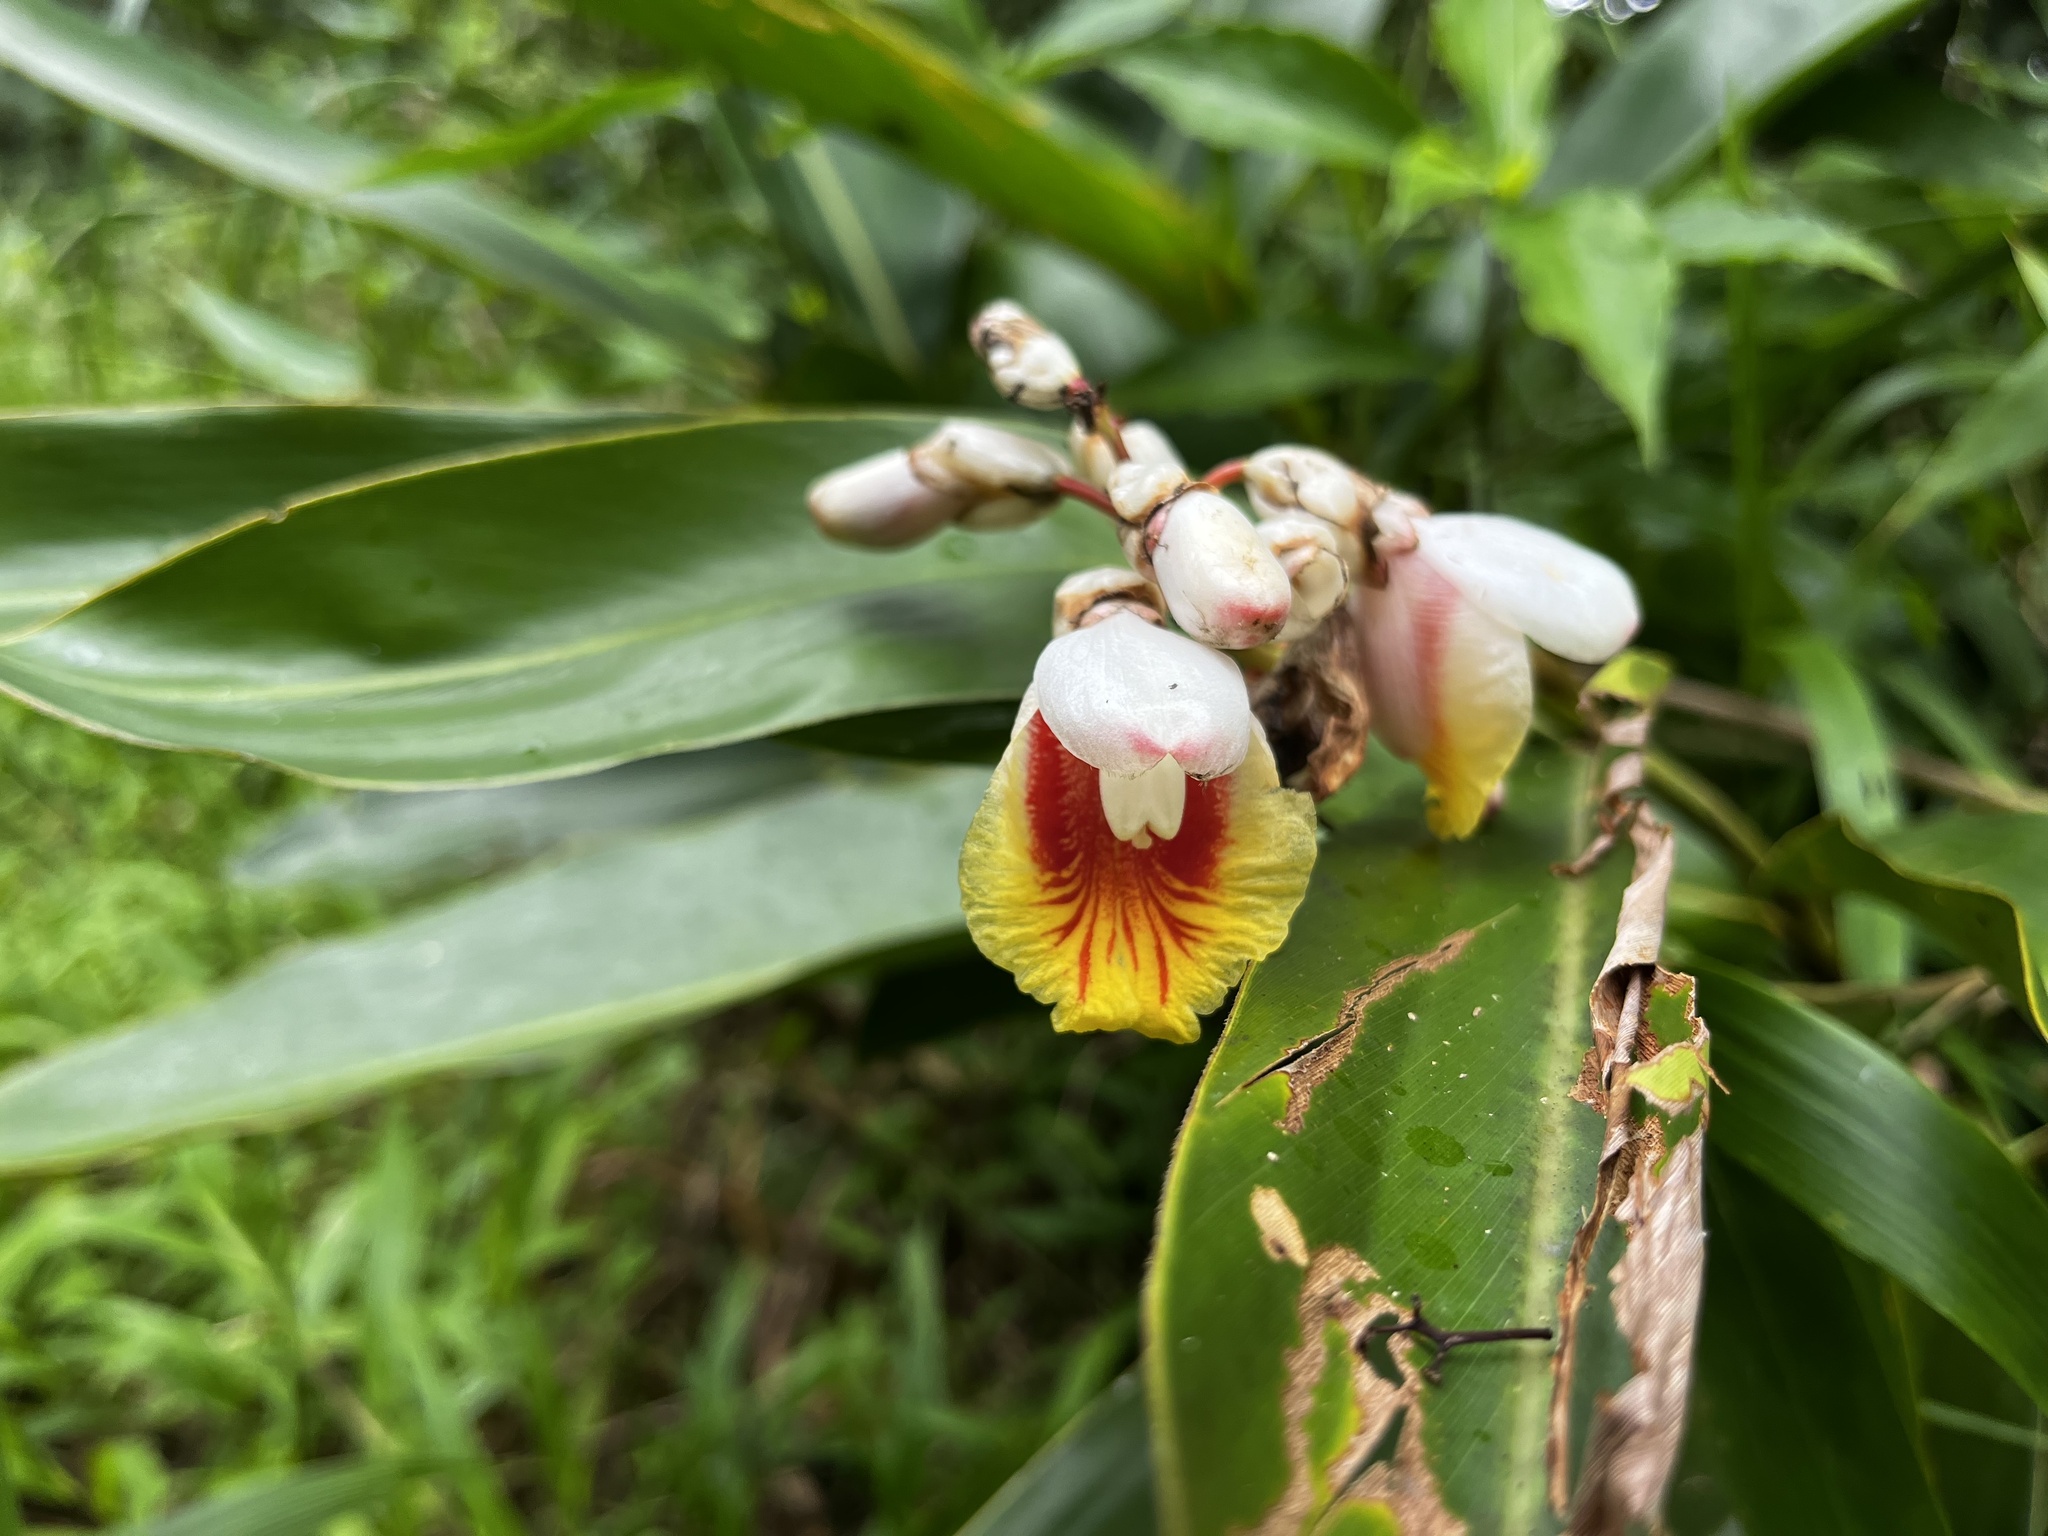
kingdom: Plantae
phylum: Tracheophyta
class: Liliopsida
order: Zingiberales
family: Zingiberaceae
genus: Alpinia
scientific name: Alpinia koshunensis
